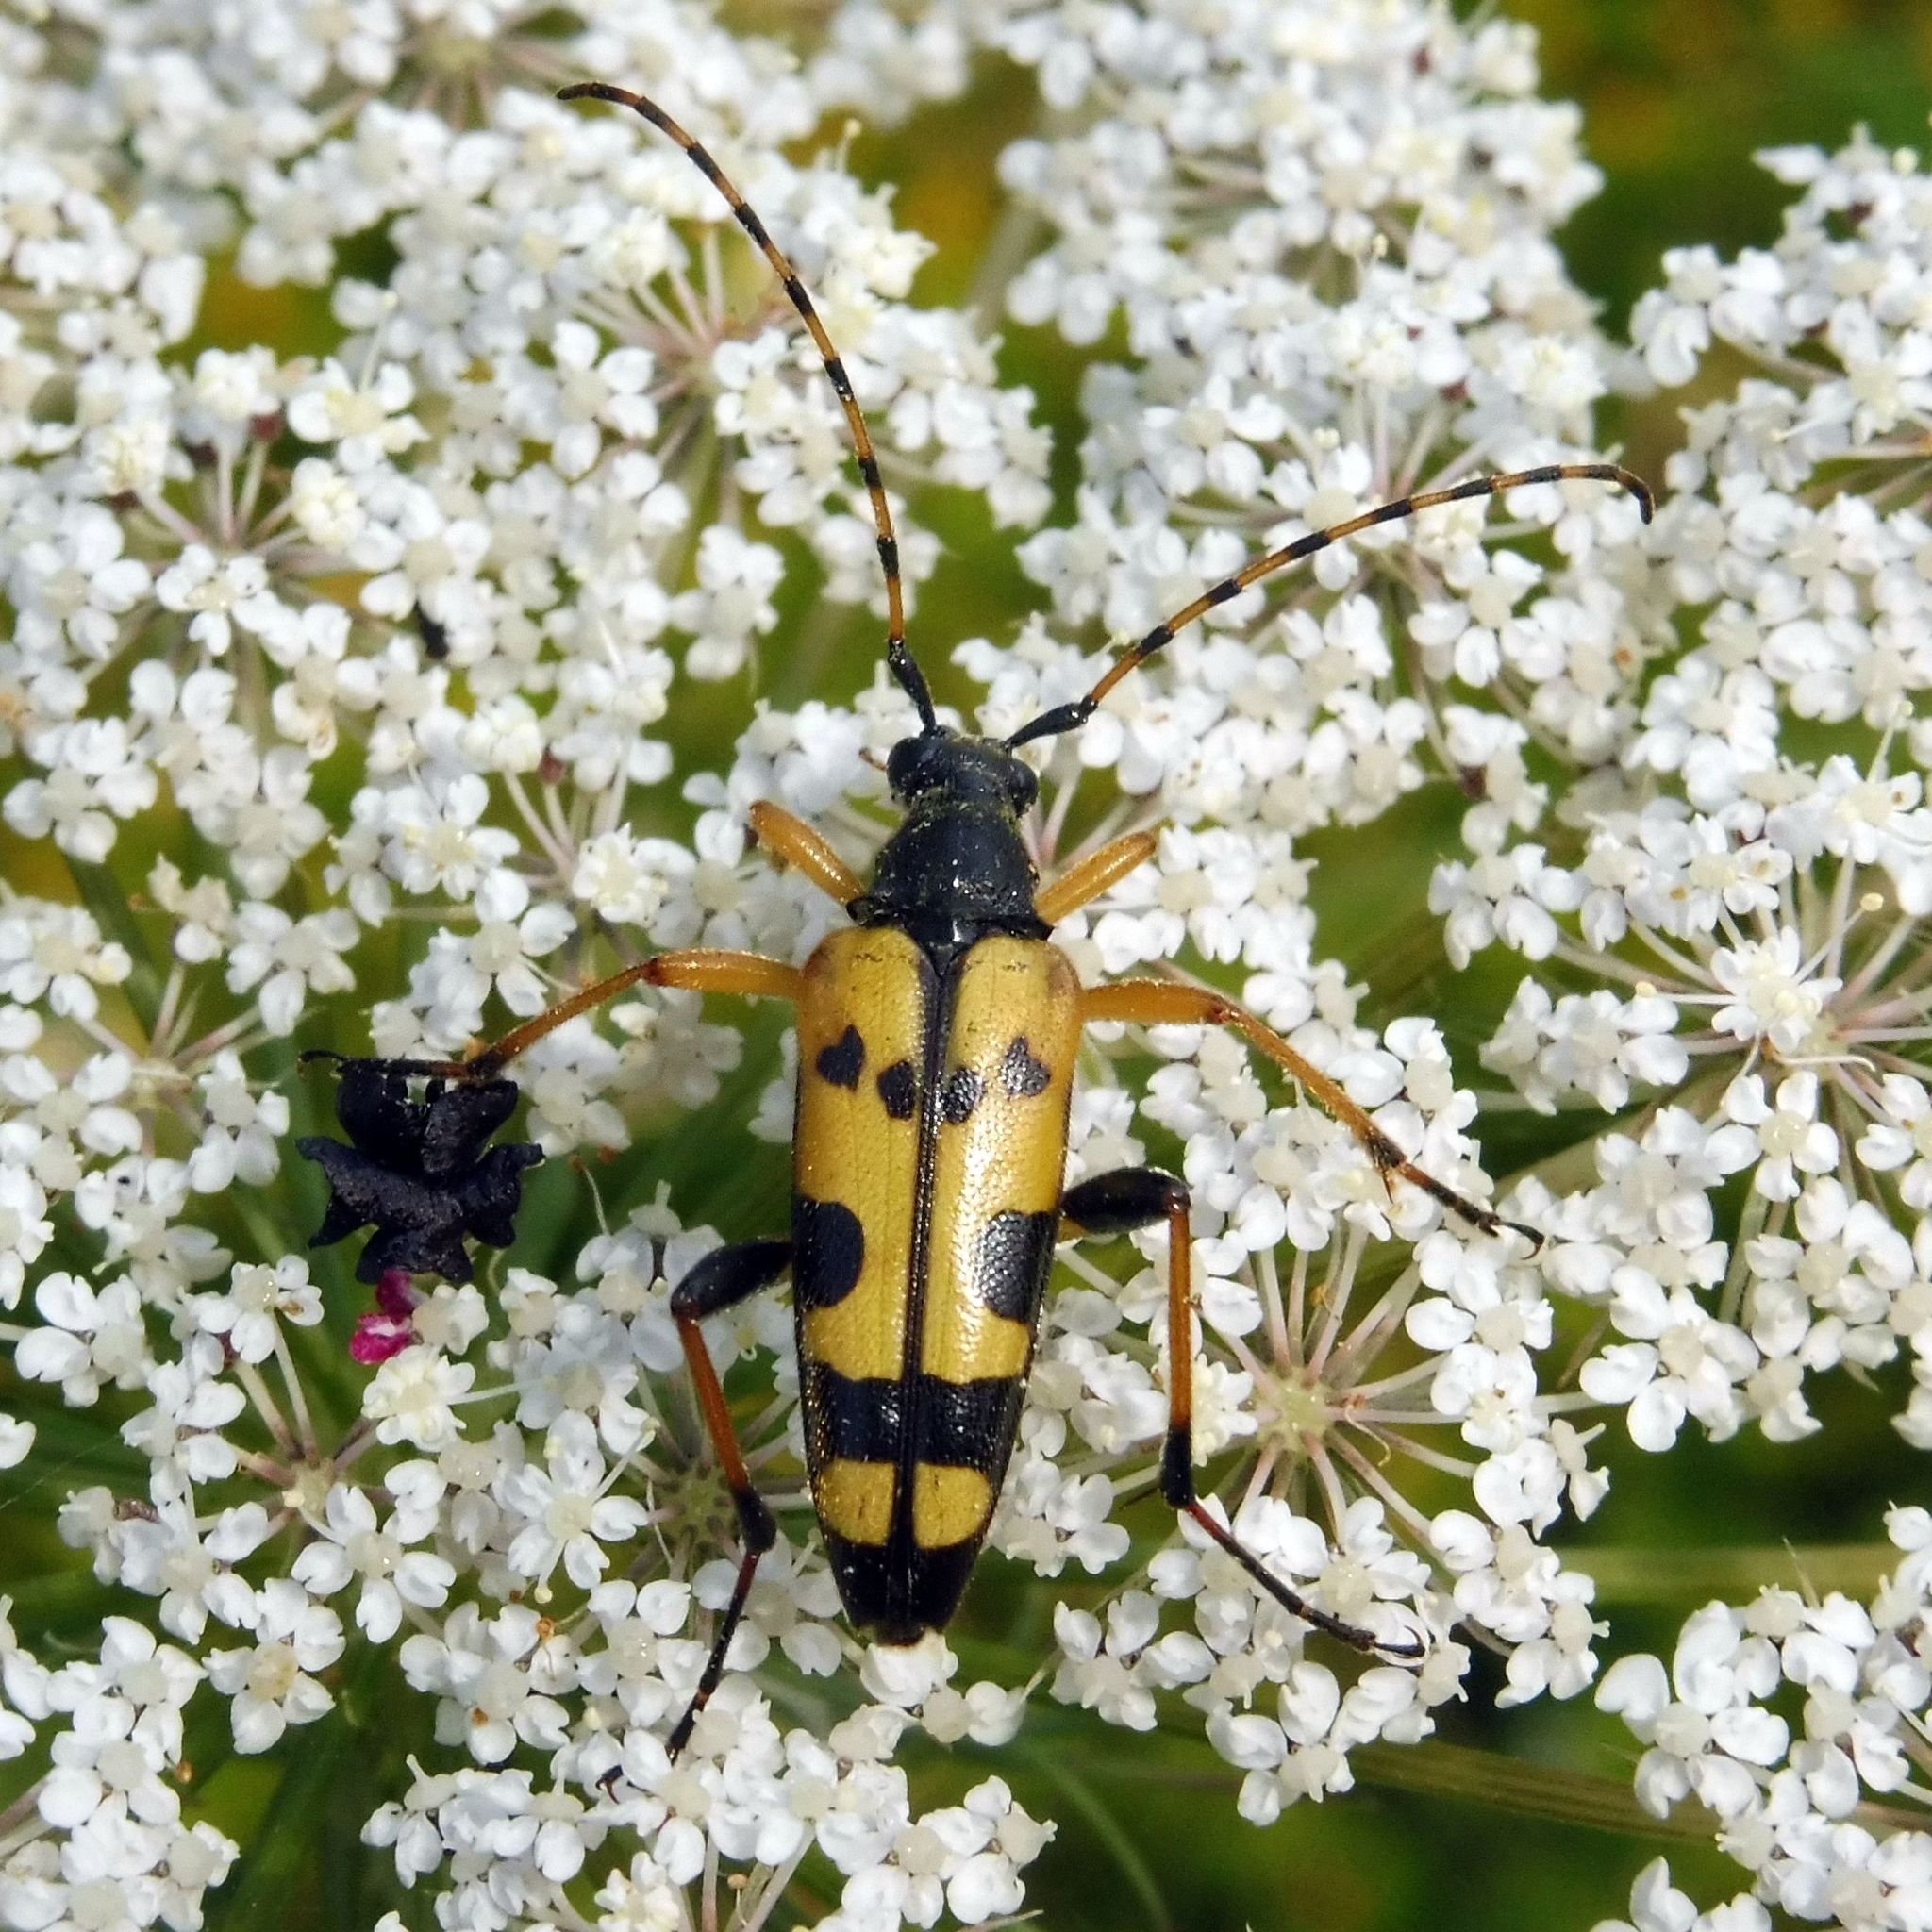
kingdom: Animalia
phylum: Arthropoda
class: Insecta
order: Coleoptera
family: Cerambycidae
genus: Rutpela
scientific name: Rutpela maculata
